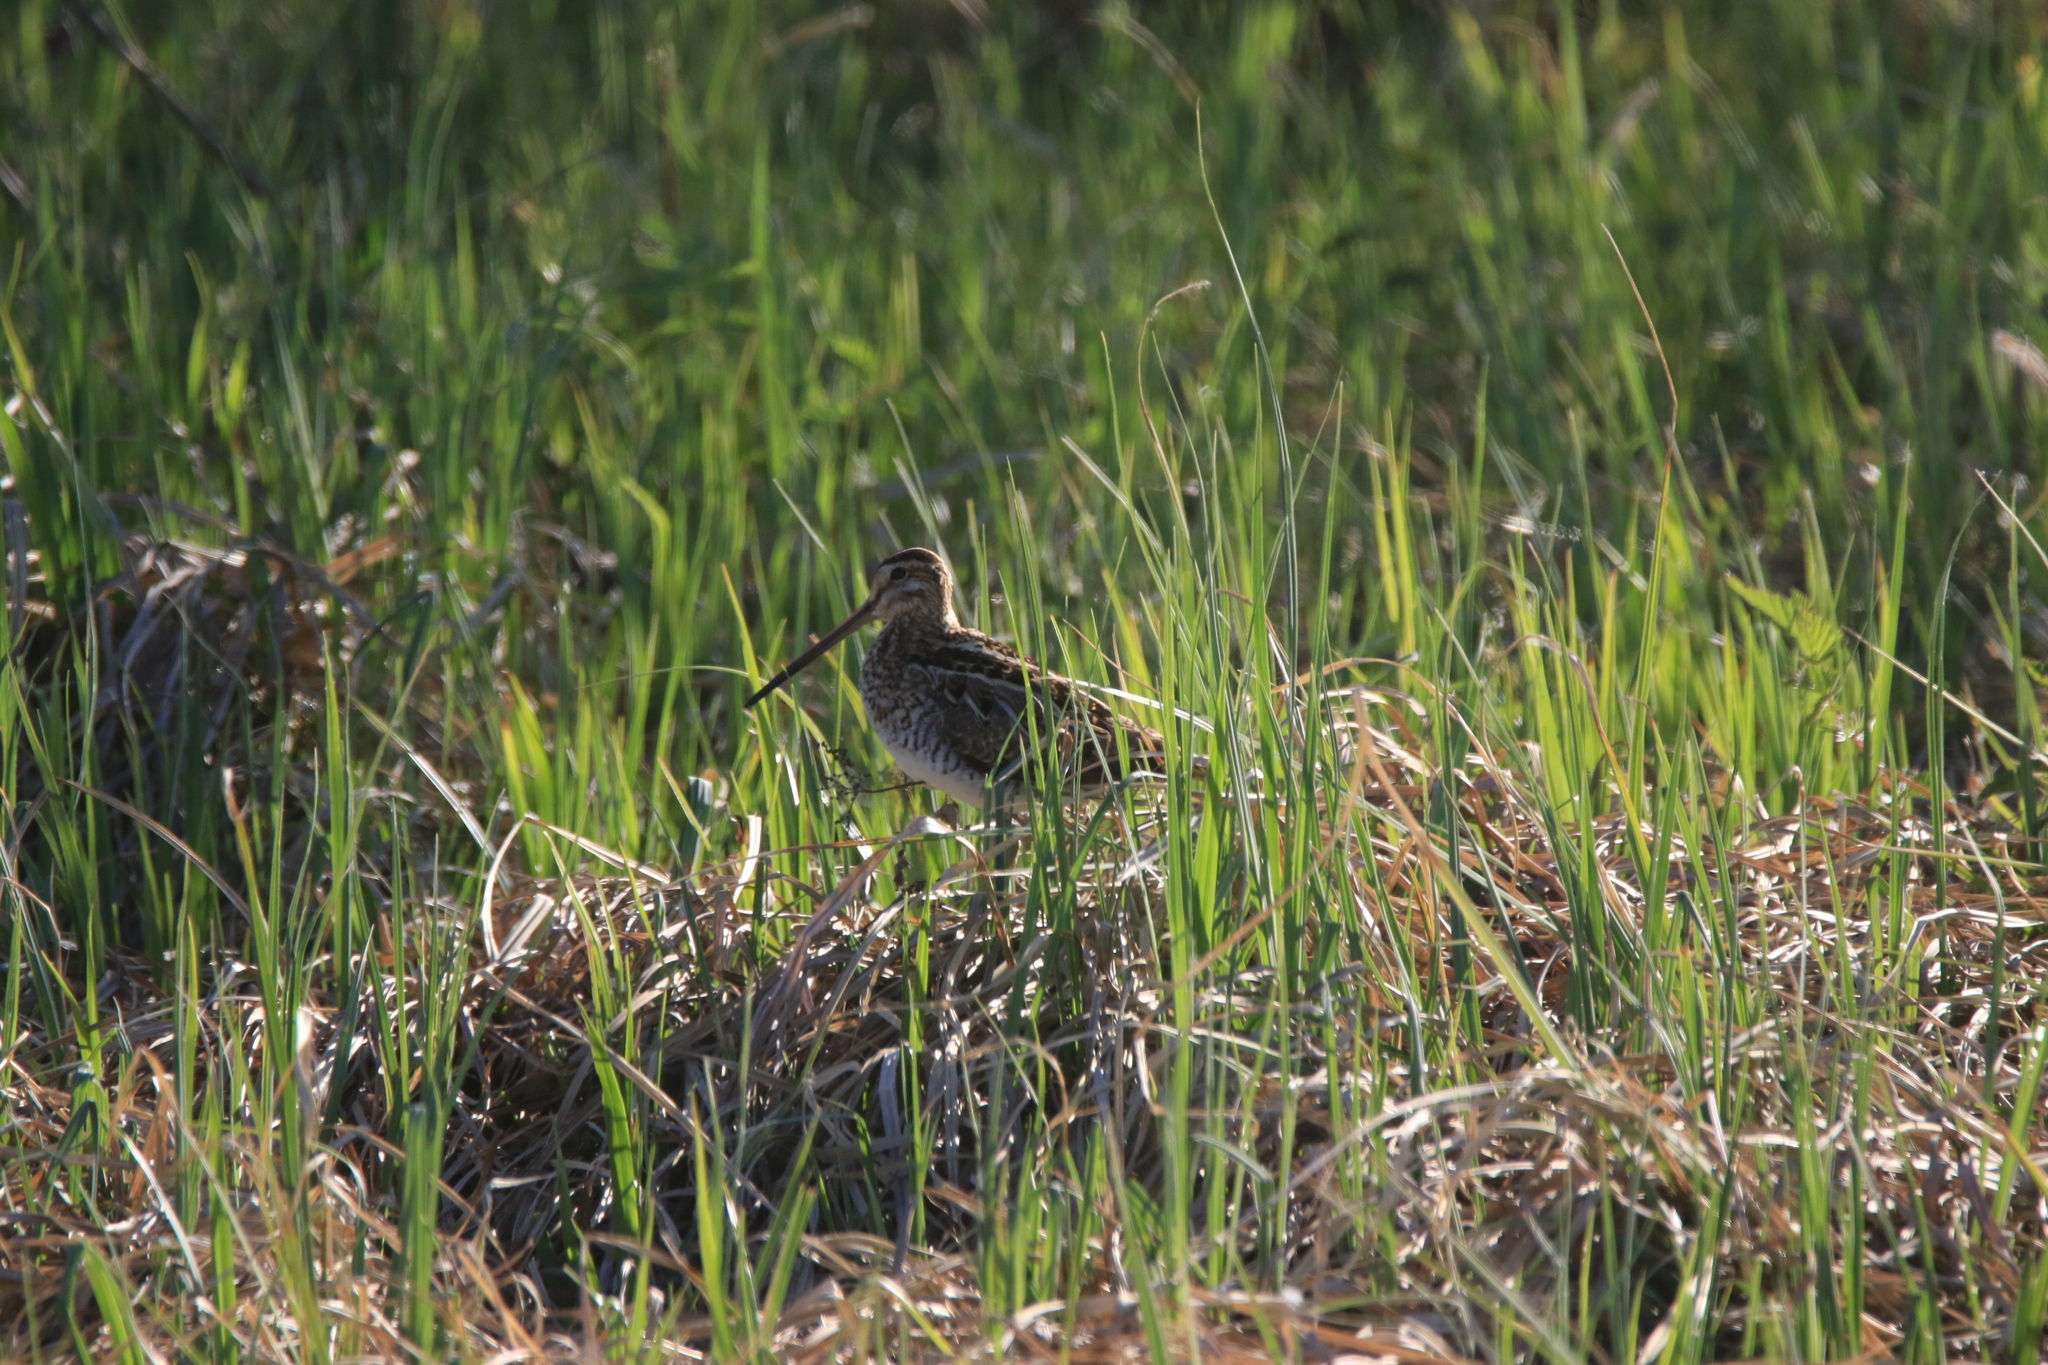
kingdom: Animalia
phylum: Chordata
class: Aves
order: Charadriiformes
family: Scolopacidae
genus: Gallinago
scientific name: Gallinago gallinago
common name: Common snipe
